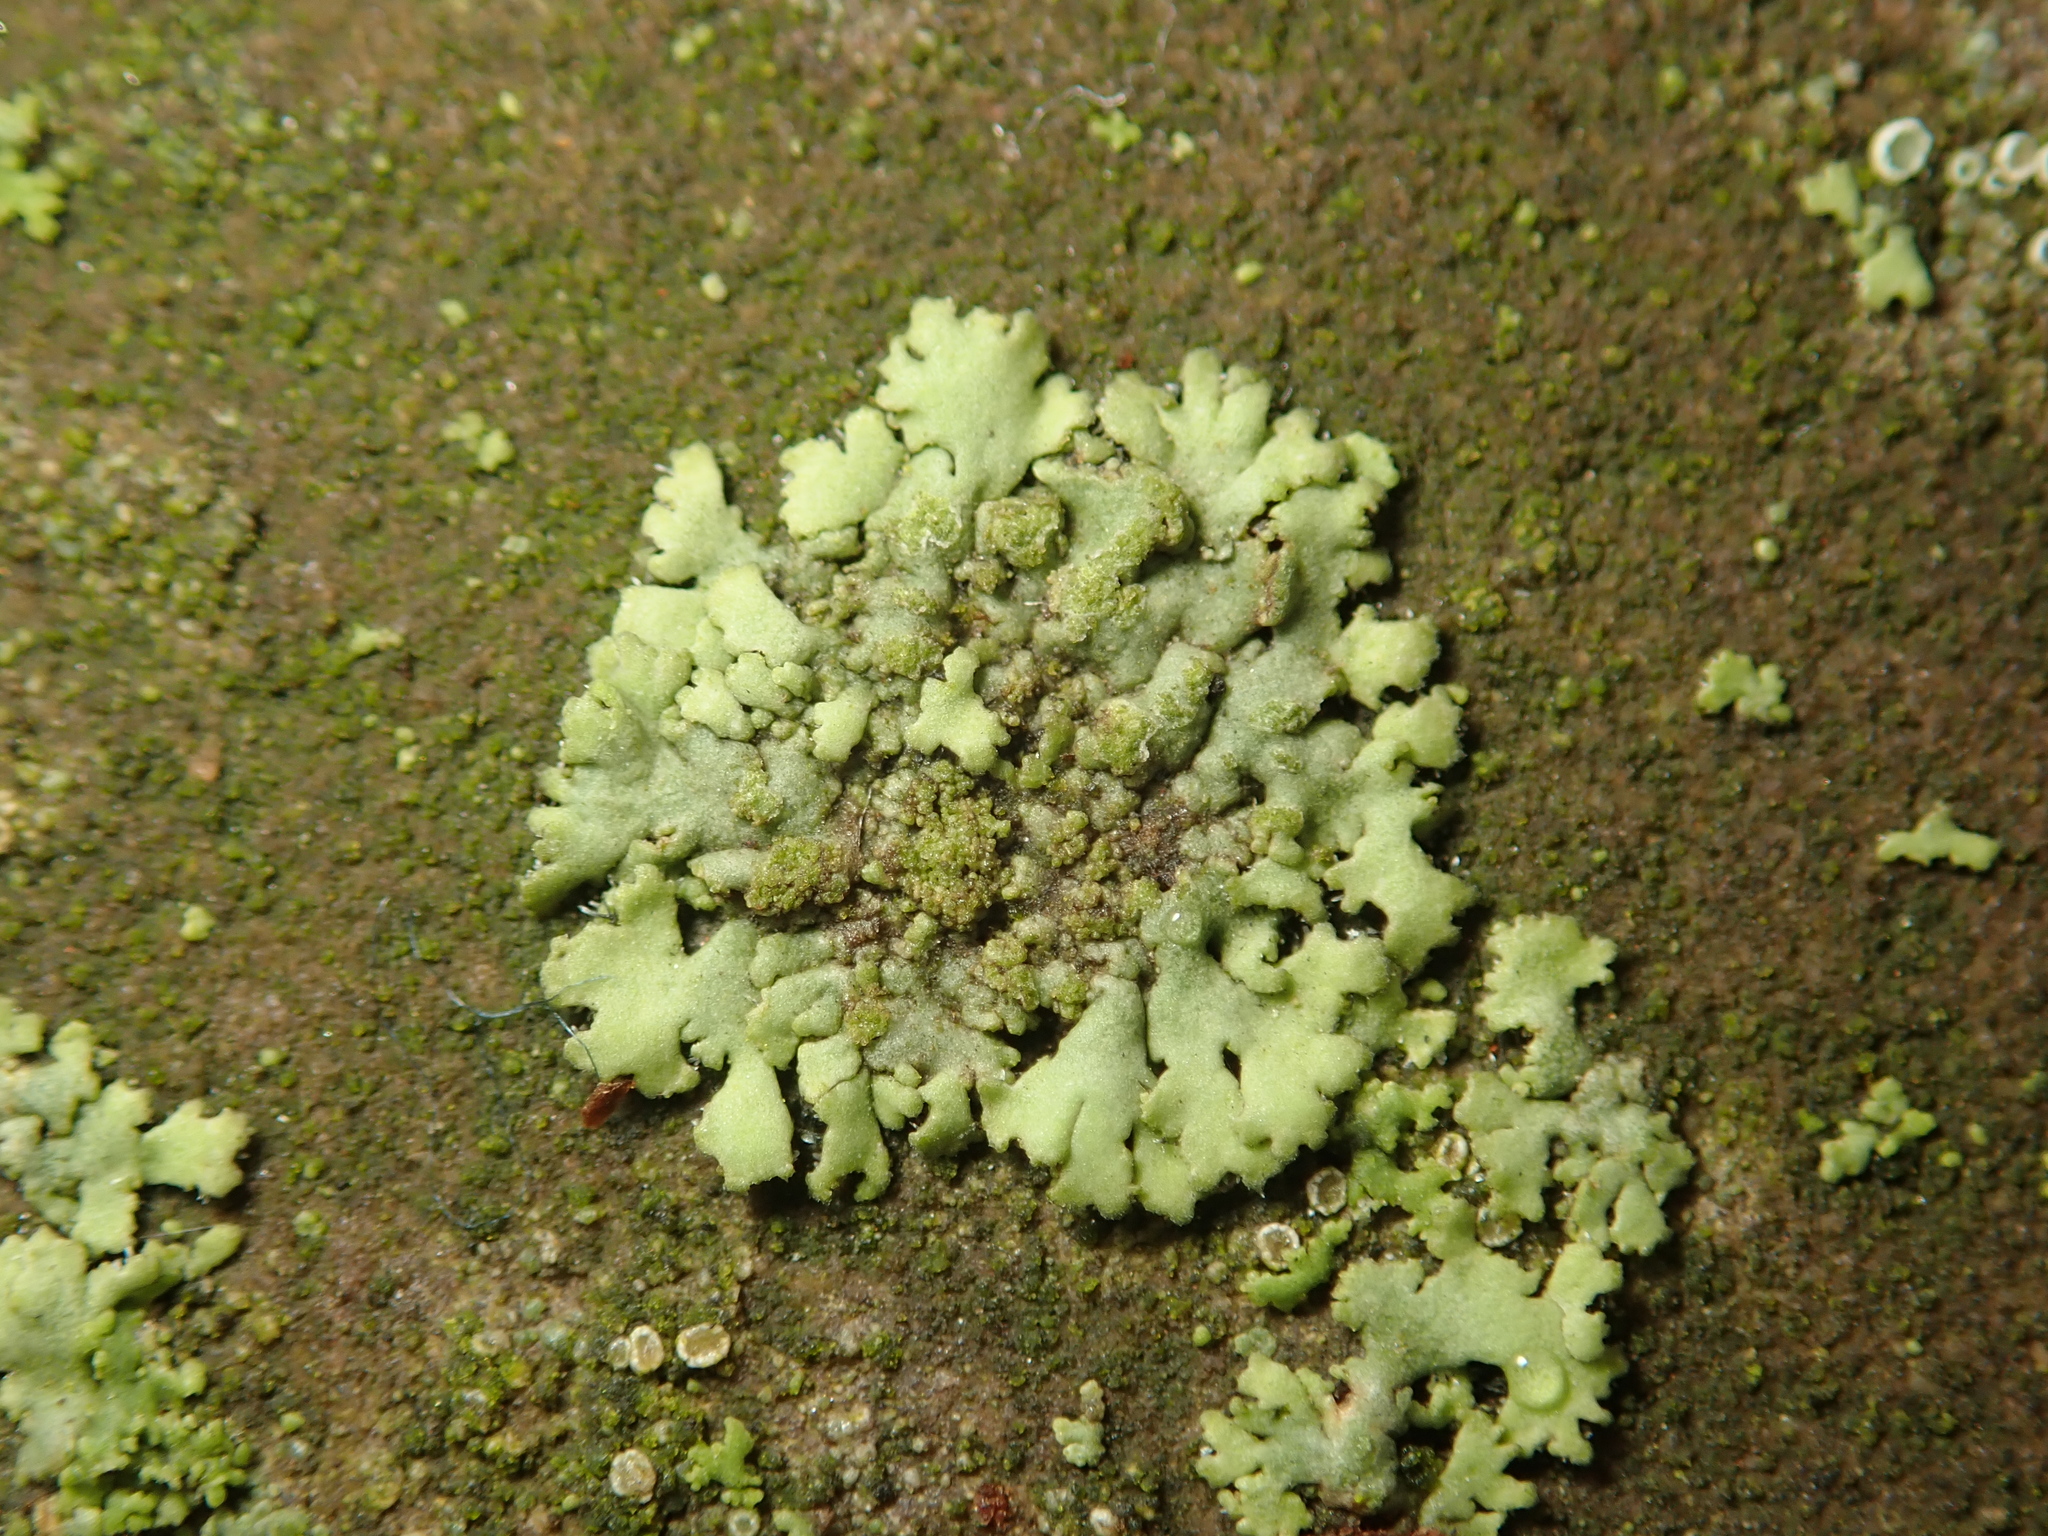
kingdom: Fungi
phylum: Ascomycota
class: Lecanoromycetes
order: Caliciales
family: Physciaceae
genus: Phaeophyscia
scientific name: Phaeophyscia orbicularis
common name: Mealy shadow lichen
